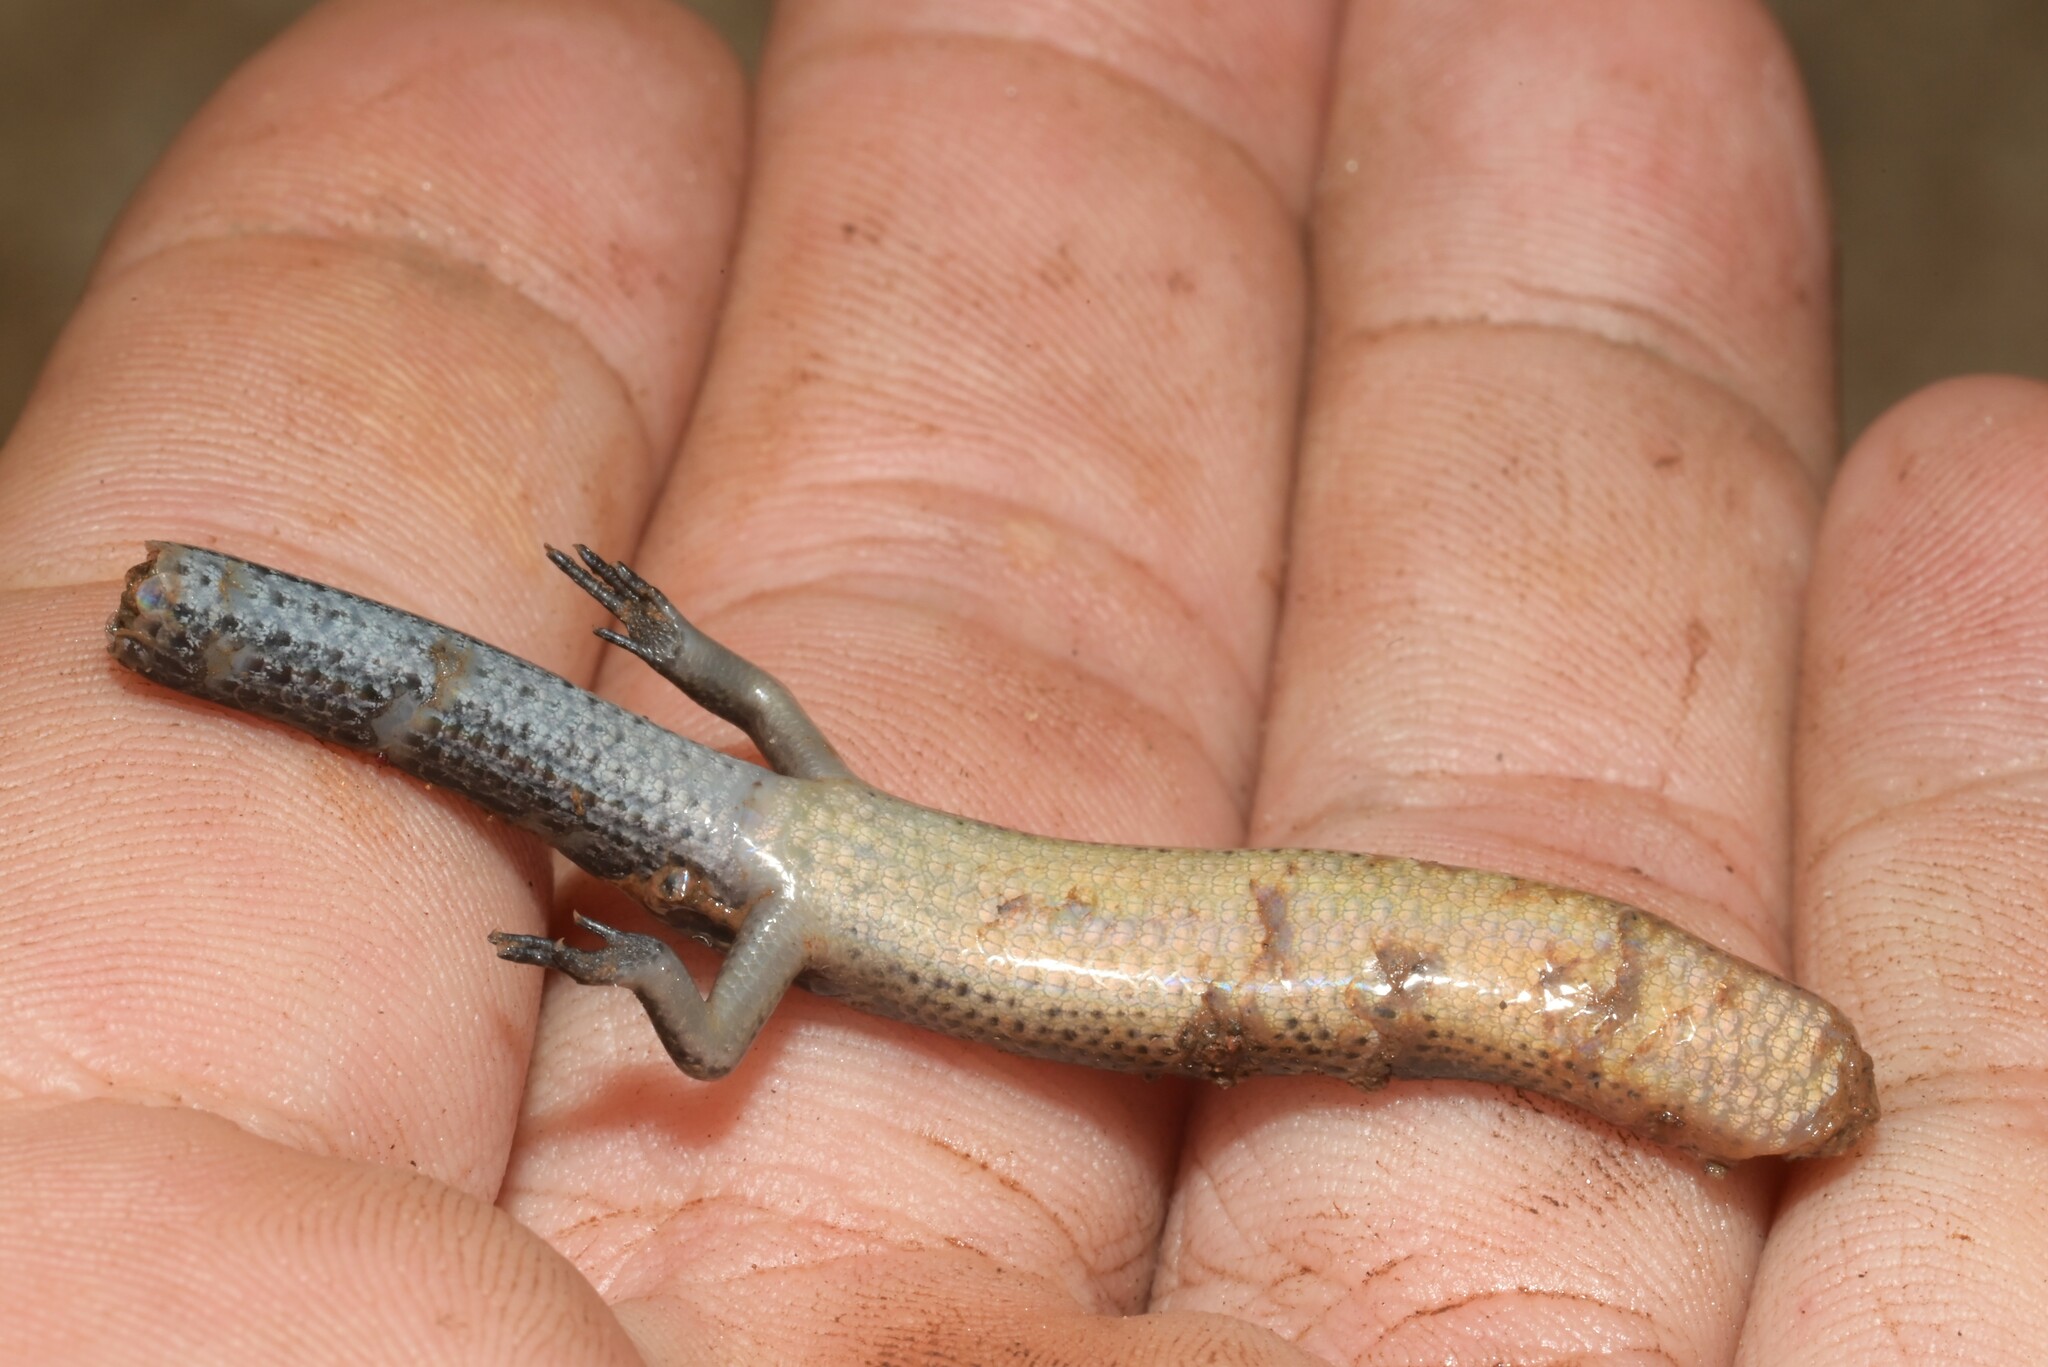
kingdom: Animalia
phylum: Chordata
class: Squamata
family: Scincidae
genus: Mochlus
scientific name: Mochlus sundevallii
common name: Peters' eyelid skink
